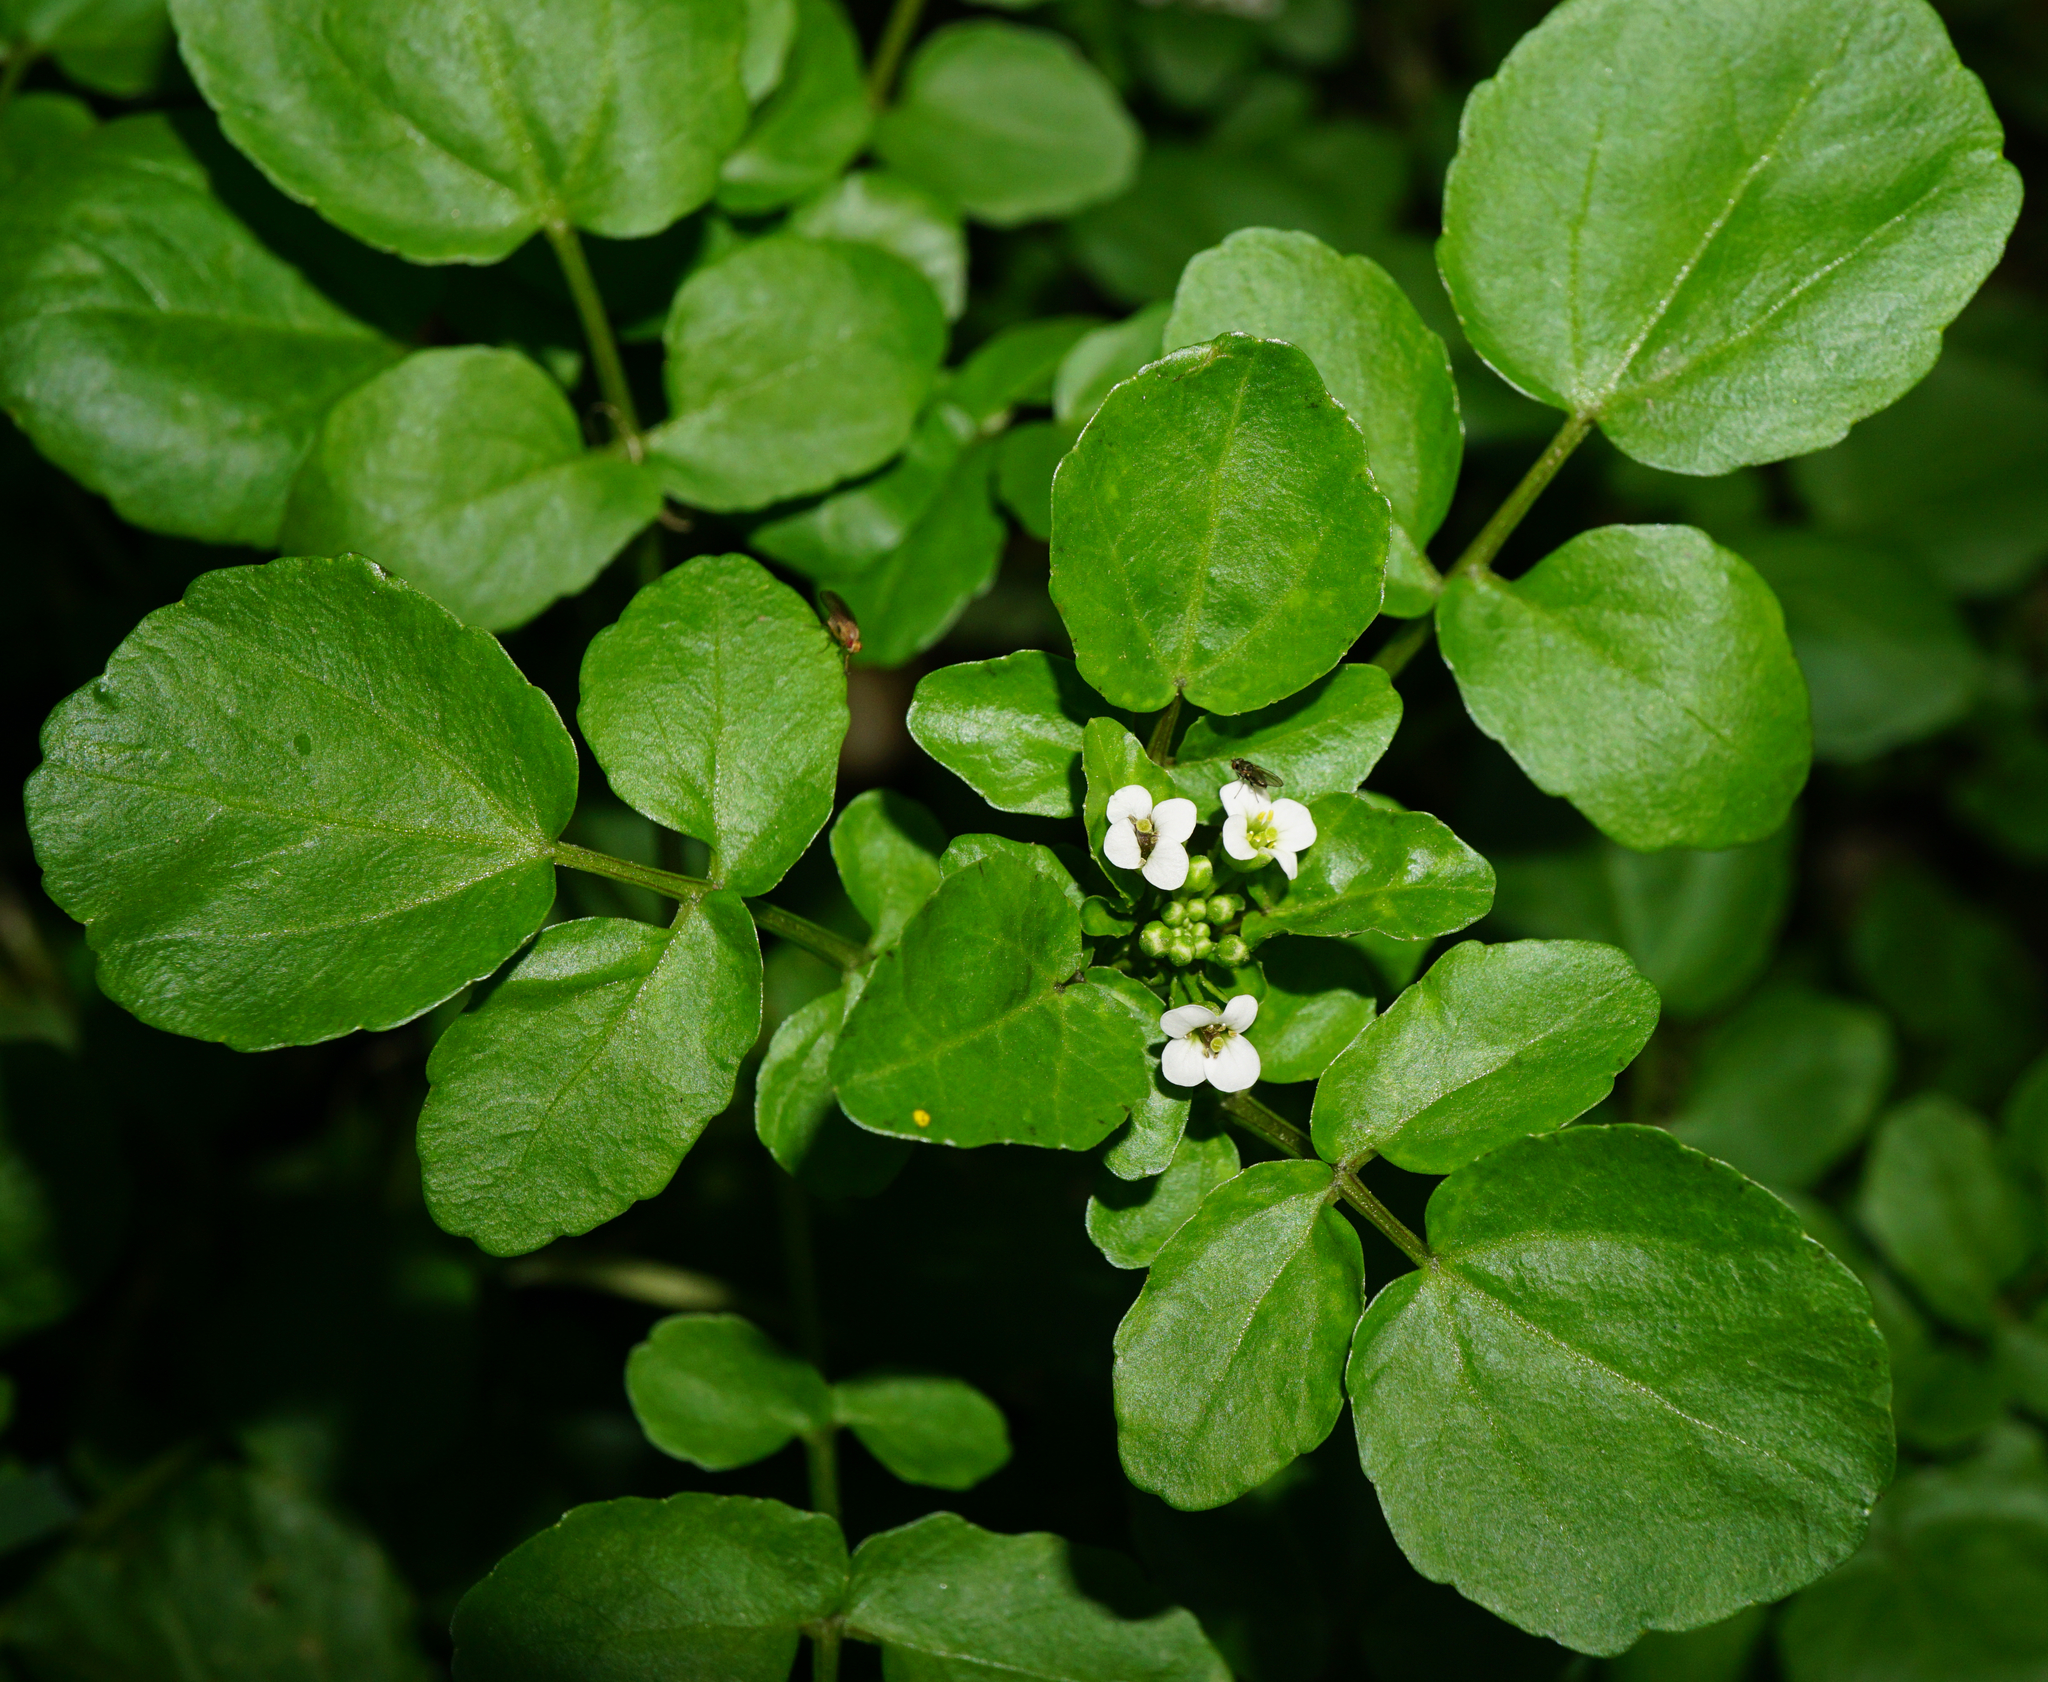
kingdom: Plantae
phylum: Tracheophyta
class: Magnoliopsida
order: Brassicales
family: Brassicaceae
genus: Nasturtium
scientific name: Nasturtium officinale
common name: Watercress
